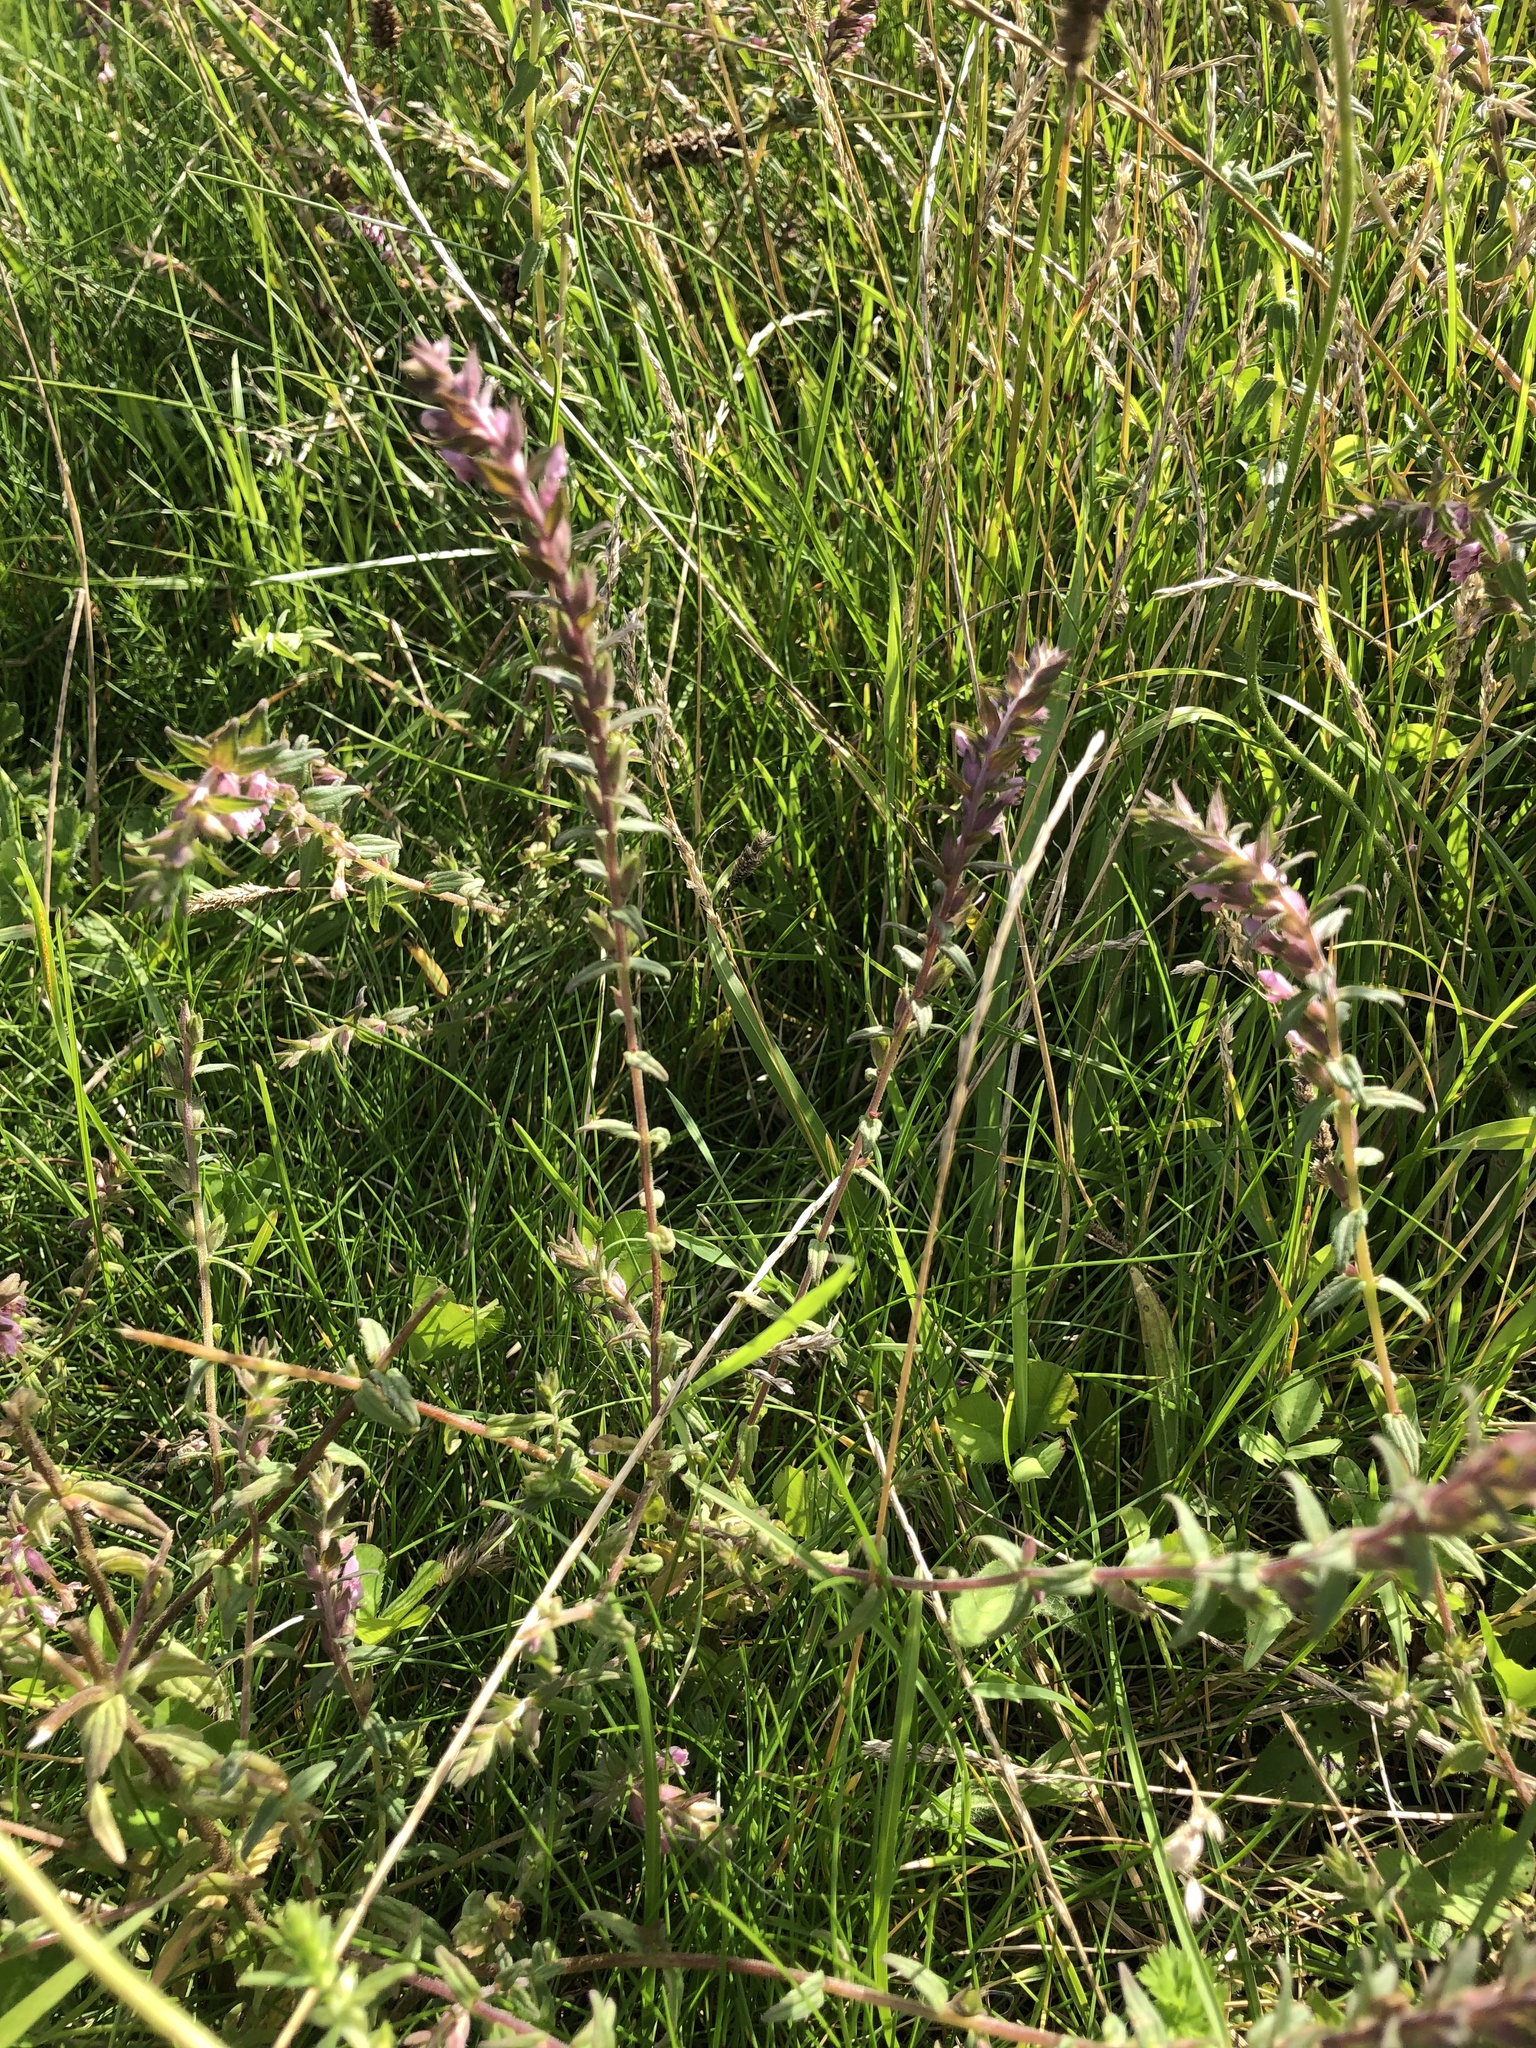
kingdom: Plantae
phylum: Tracheophyta
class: Magnoliopsida
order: Lamiales
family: Orobanchaceae
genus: Odontites
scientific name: Odontites vulgaris
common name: Broomrape
